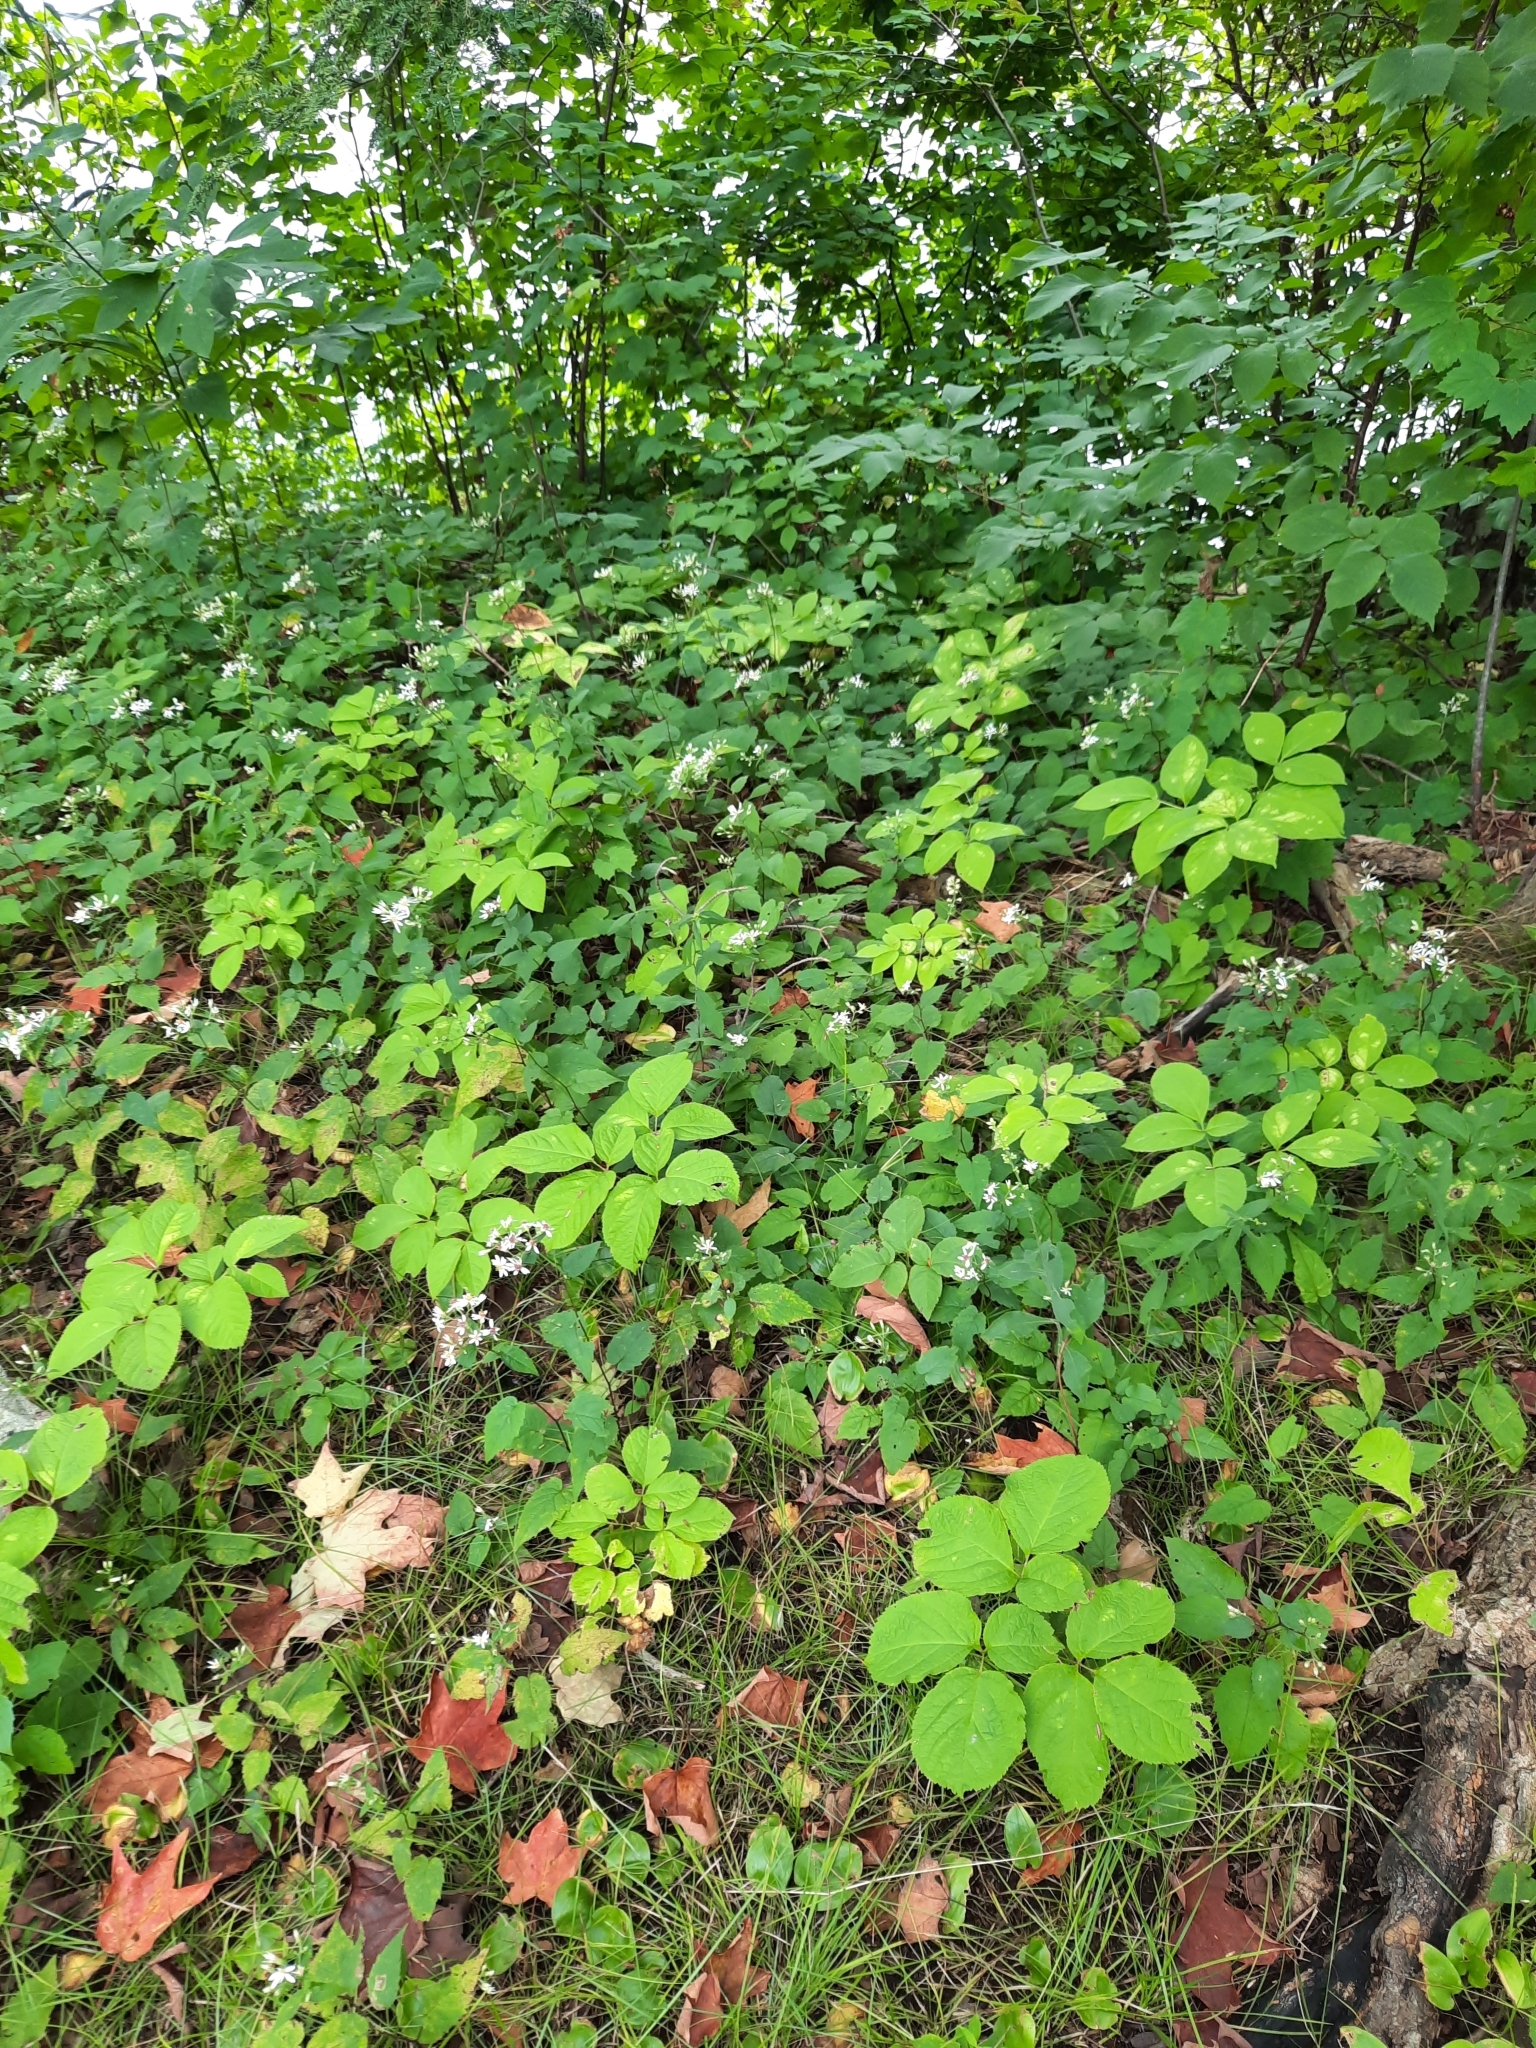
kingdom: Plantae
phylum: Tracheophyta
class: Magnoliopsida
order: Apiales
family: Araliaceae
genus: Aralia
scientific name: Aralia nudicaulis
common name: Wild sarsaparilla
